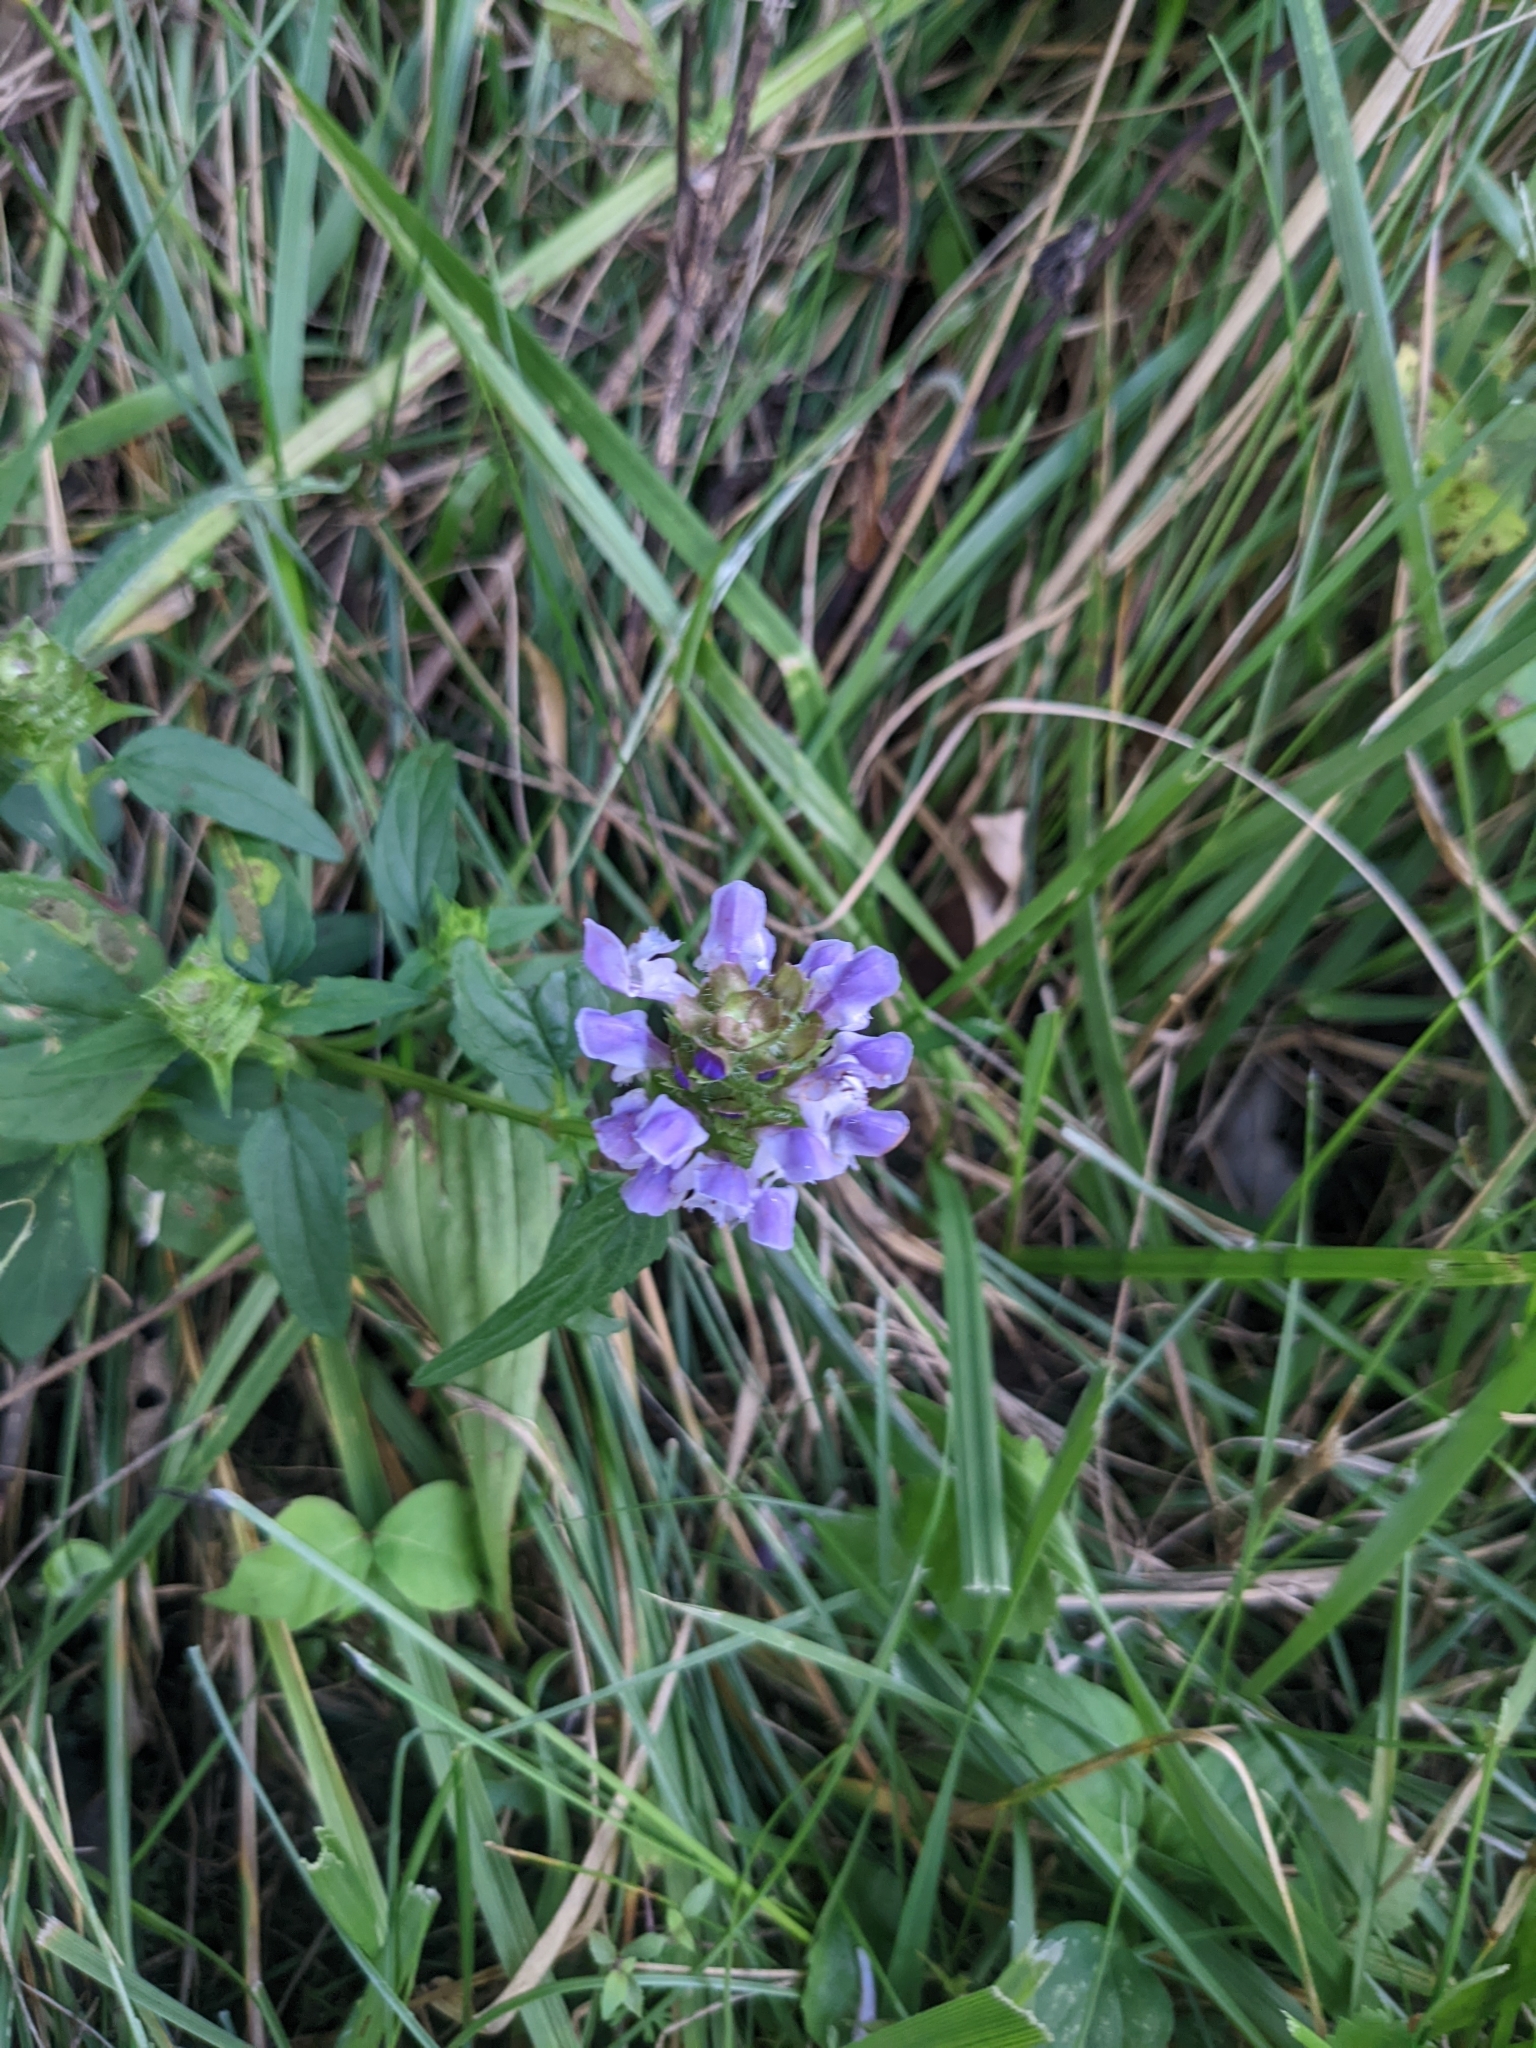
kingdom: Plantae
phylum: Tracheophyta
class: Magnoliopsida
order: Lamiales
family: Lamiaceae
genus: Prunella
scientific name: Prunella vulgaris
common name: Heal-all
